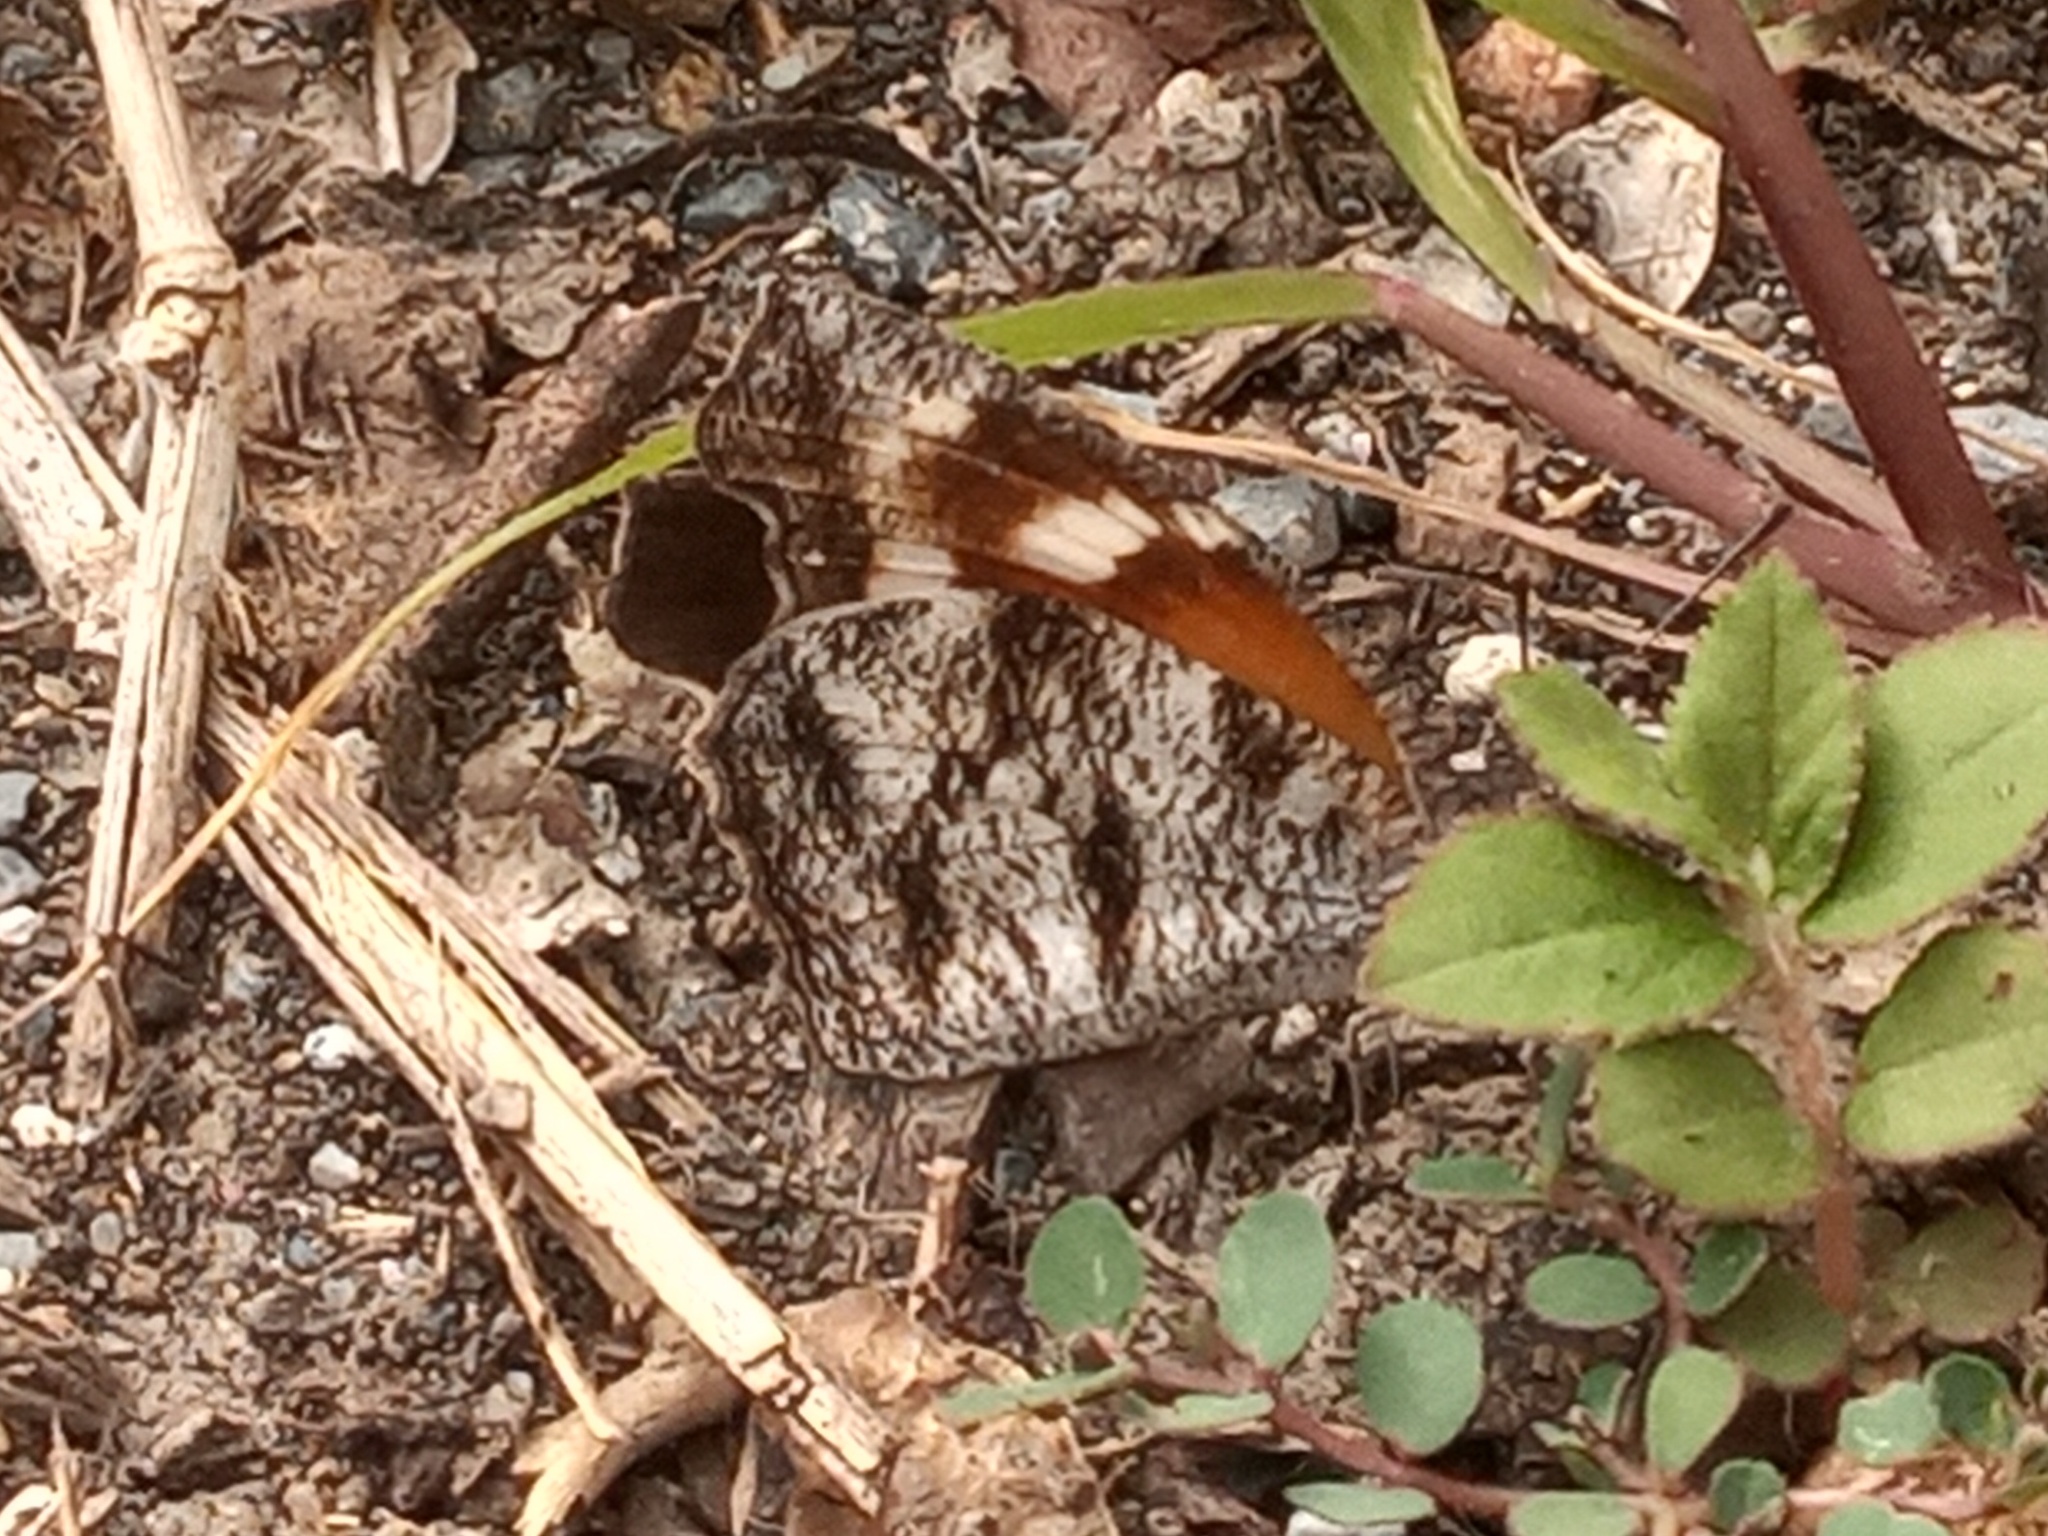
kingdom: Animalia
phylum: Arthropoda
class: Insecta
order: Lepidoptera
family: Nymphalidae
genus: Libytheana
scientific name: Libytheana carinenta
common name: American snout
